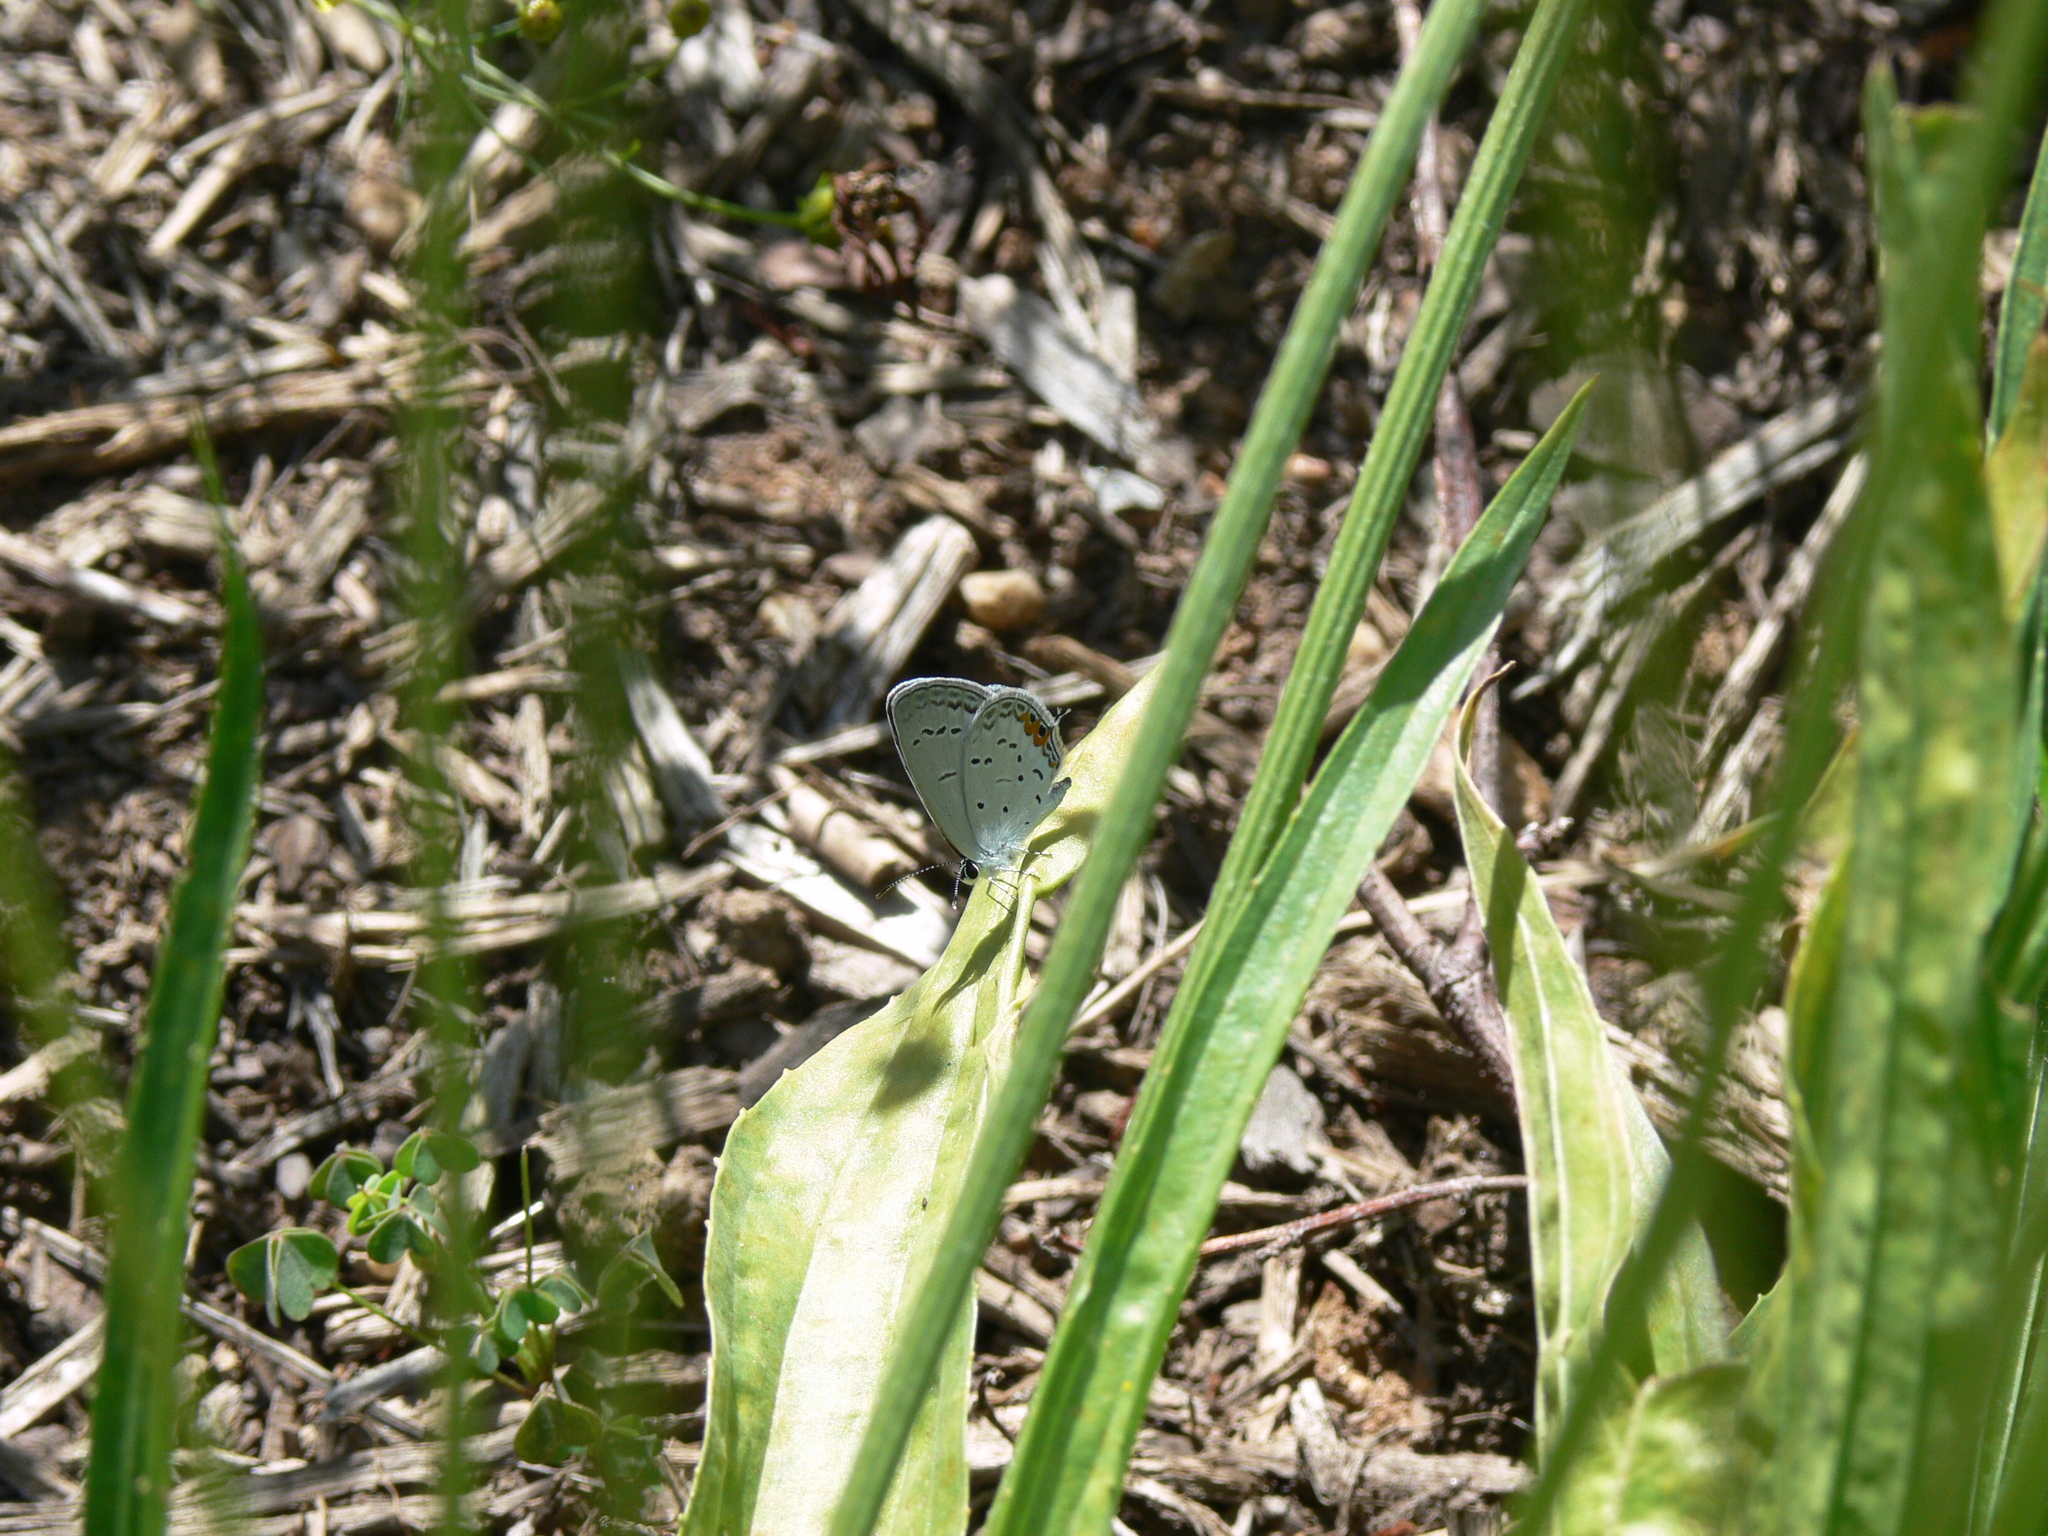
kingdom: Animalia
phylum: Arthropoda
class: Insecta
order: Lepidoptera
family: Lycaenidae
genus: Elkalyce
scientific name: Elkalyce comyntas
